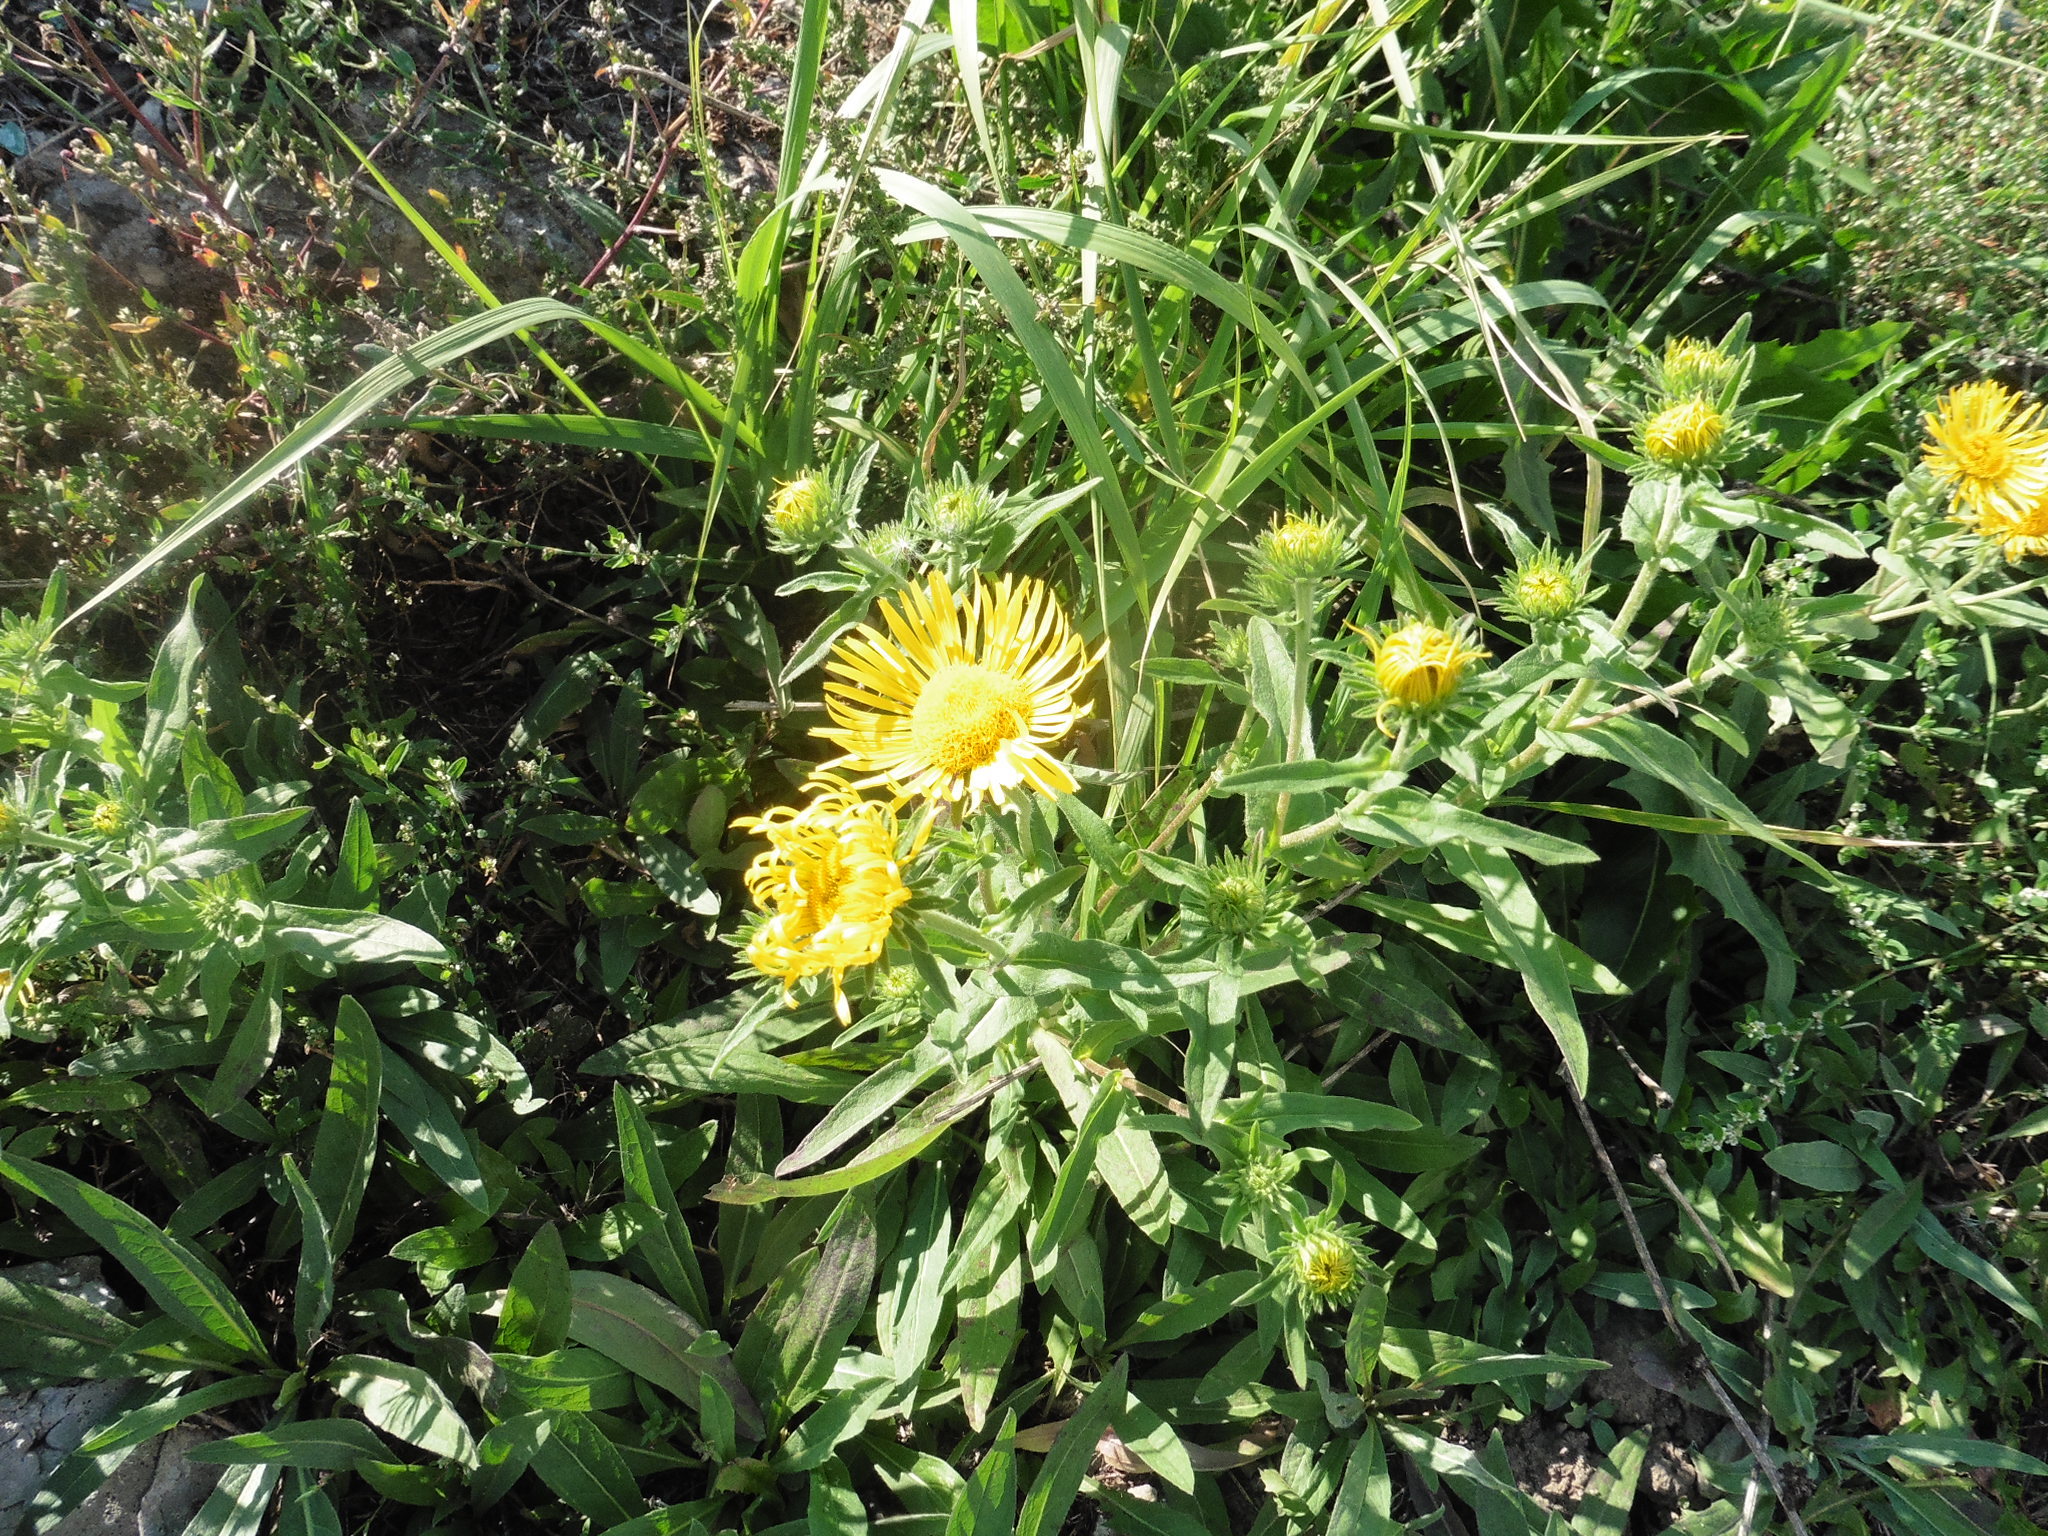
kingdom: Plantae
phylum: Tracheophyta
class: Magnoliopsida
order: Asterales
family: Asteraceae
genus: Pentanema
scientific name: Pentanema britannicum
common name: British elecampane
